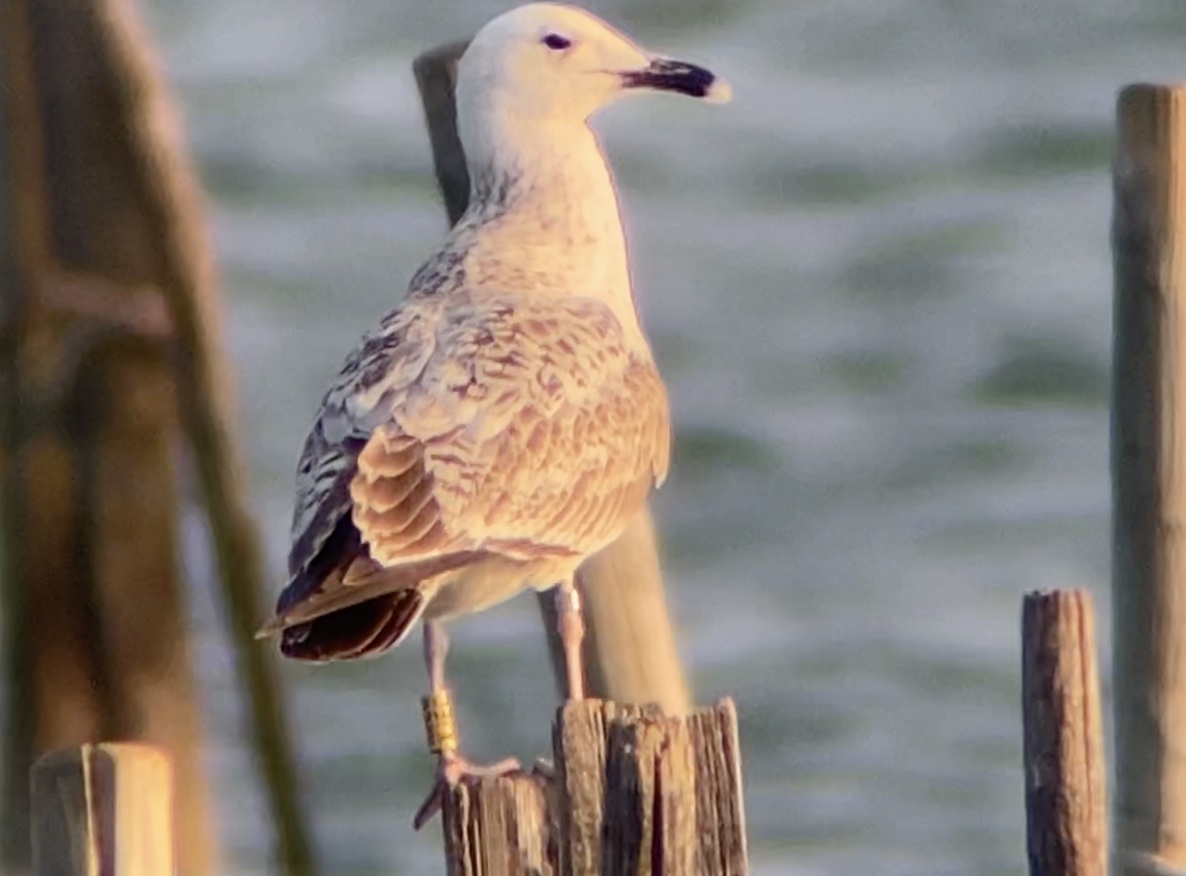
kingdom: Animalia
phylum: Chordata
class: Aves
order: Charadriiformes
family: Laridae
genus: Larus
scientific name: Larus cachinnans
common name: Caspian gull
